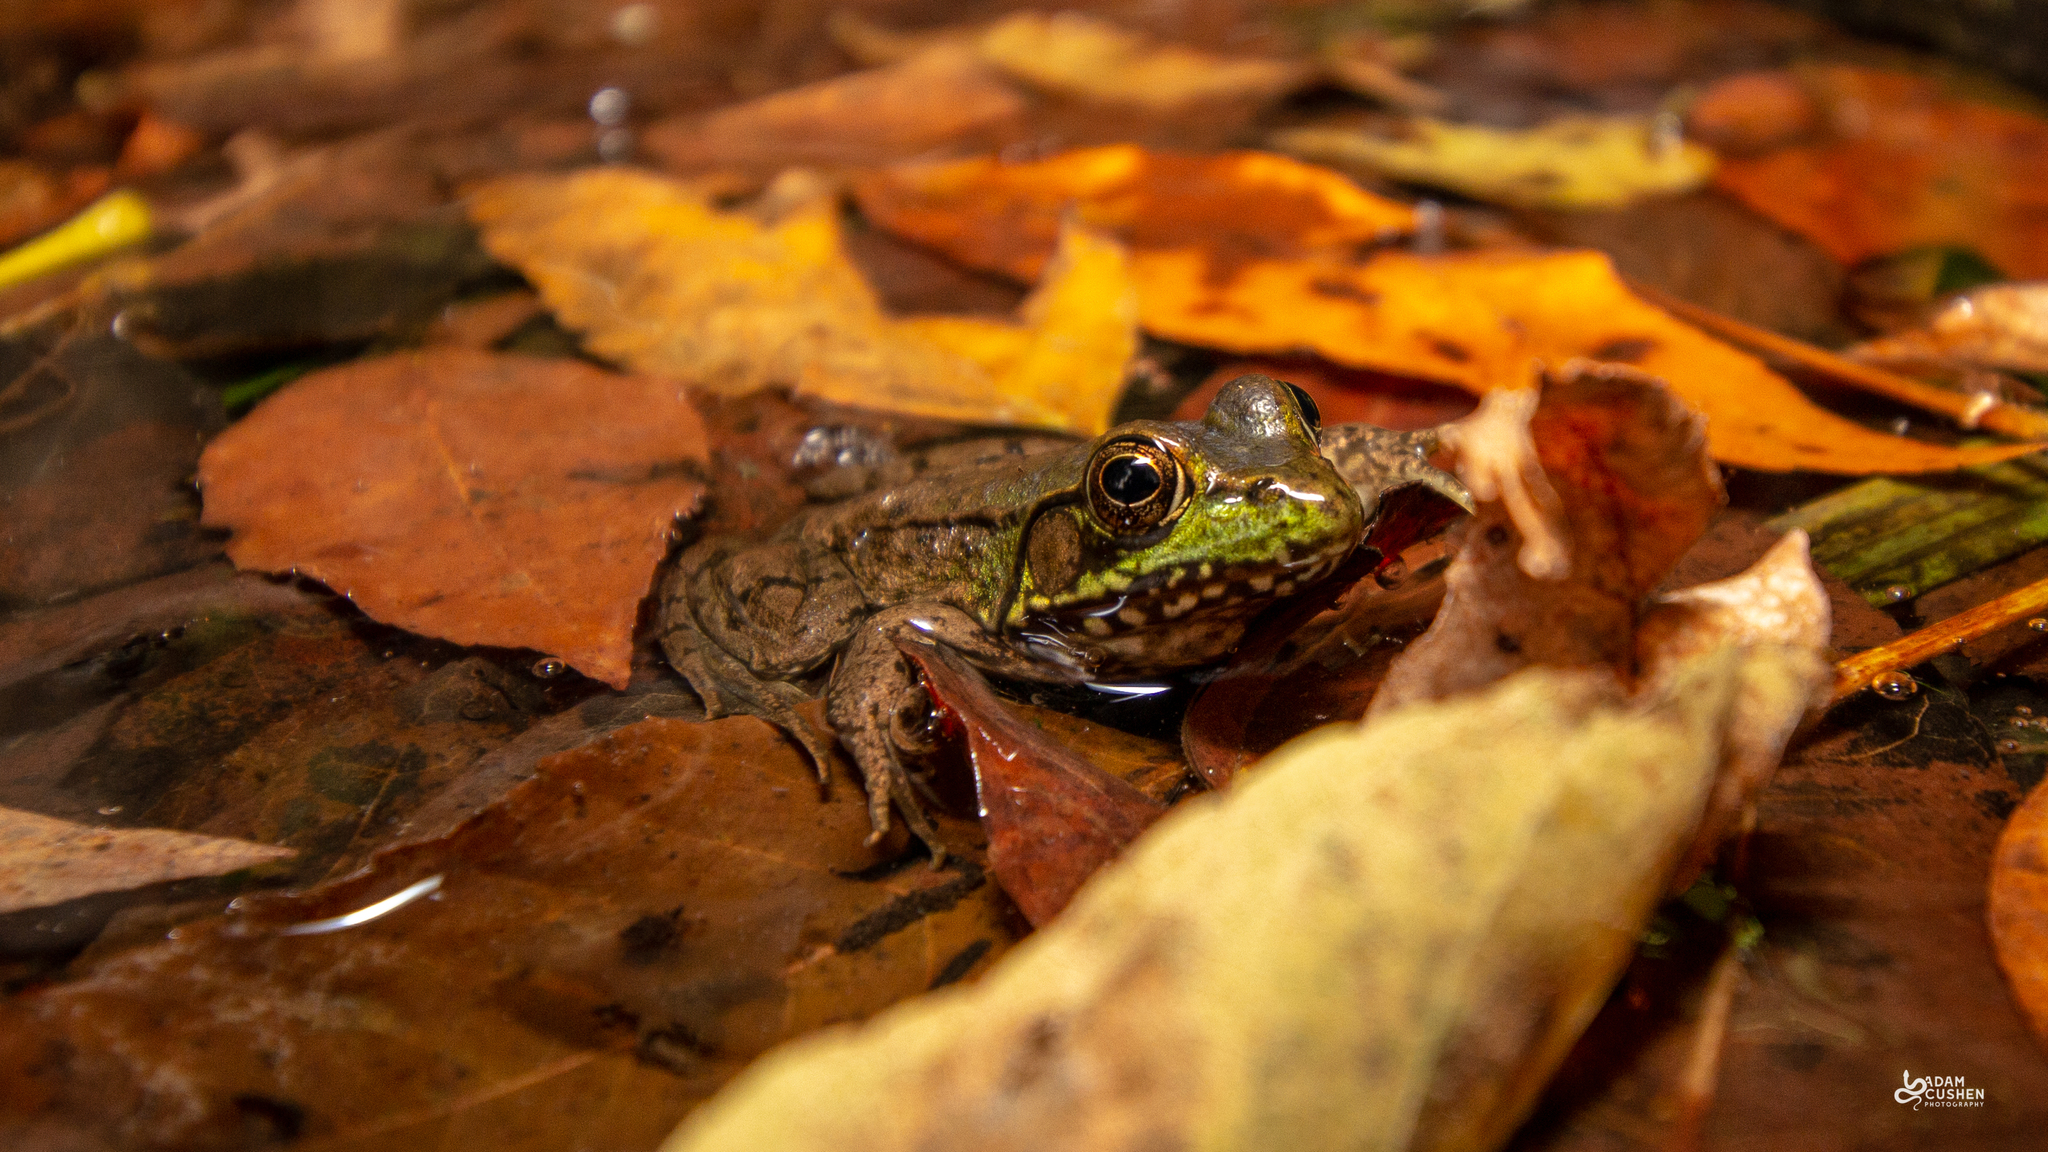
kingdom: Animalia
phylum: Chordata
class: Amphibia
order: Anura
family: Ranidae
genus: Lithobates
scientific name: Lithobates clamitans
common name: Green frog
